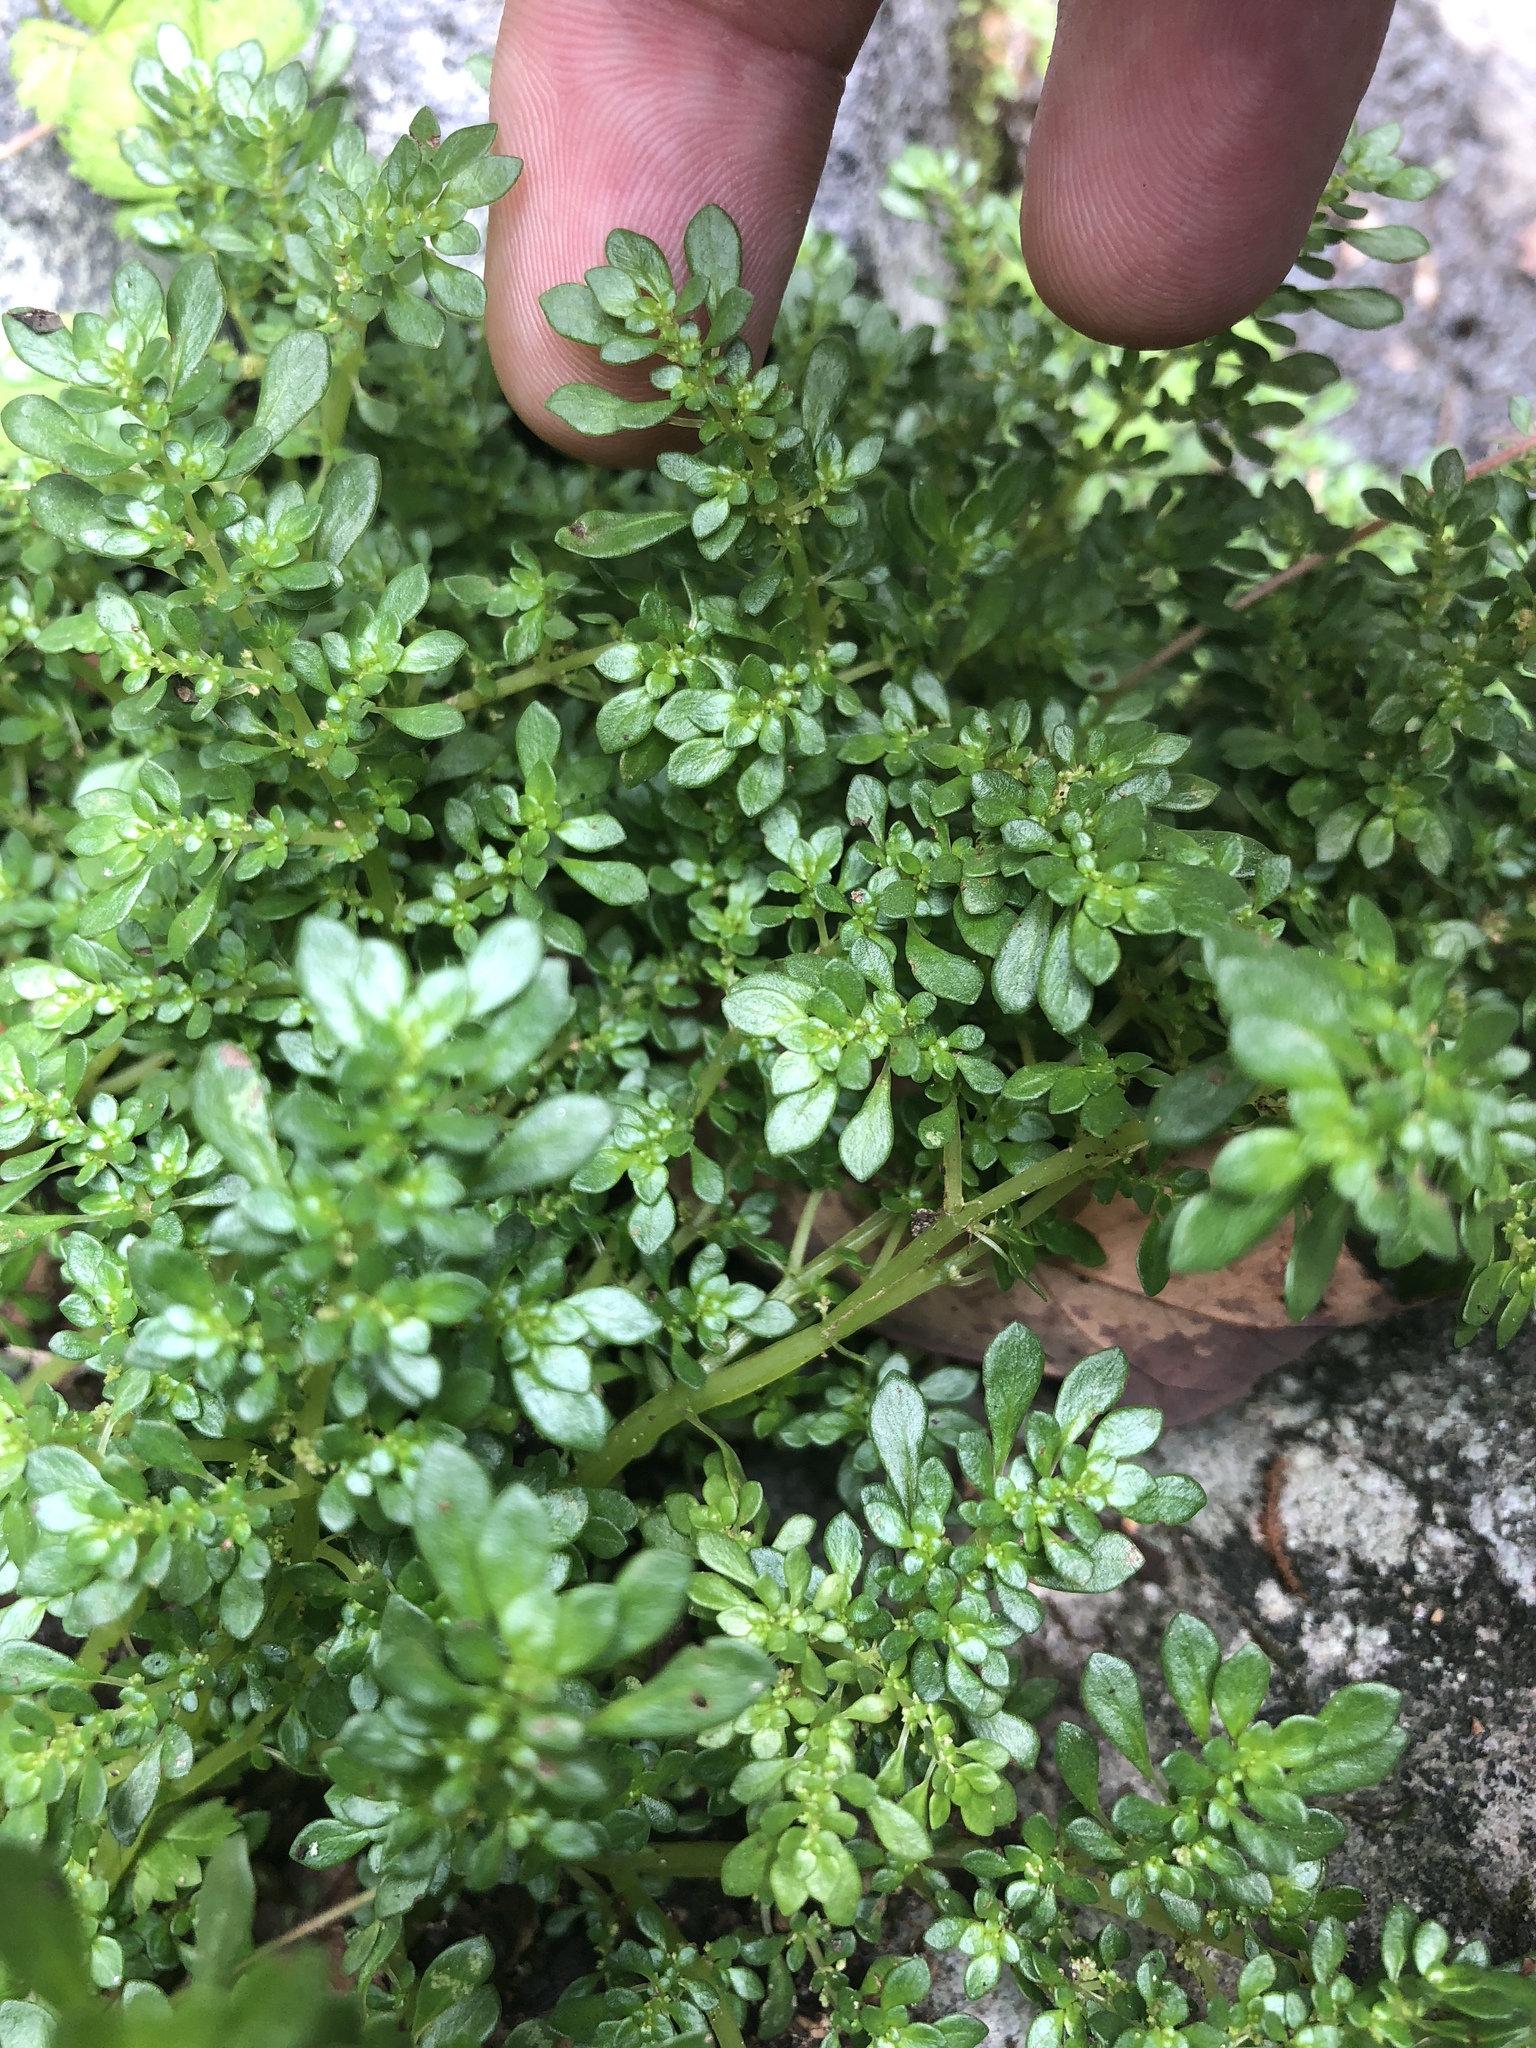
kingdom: Plantae
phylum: Tracheophyta
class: Magnoliopsida
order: Rosales
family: Urticaceae
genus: Pilea
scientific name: Pilea microphylla
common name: Artillery-plant
